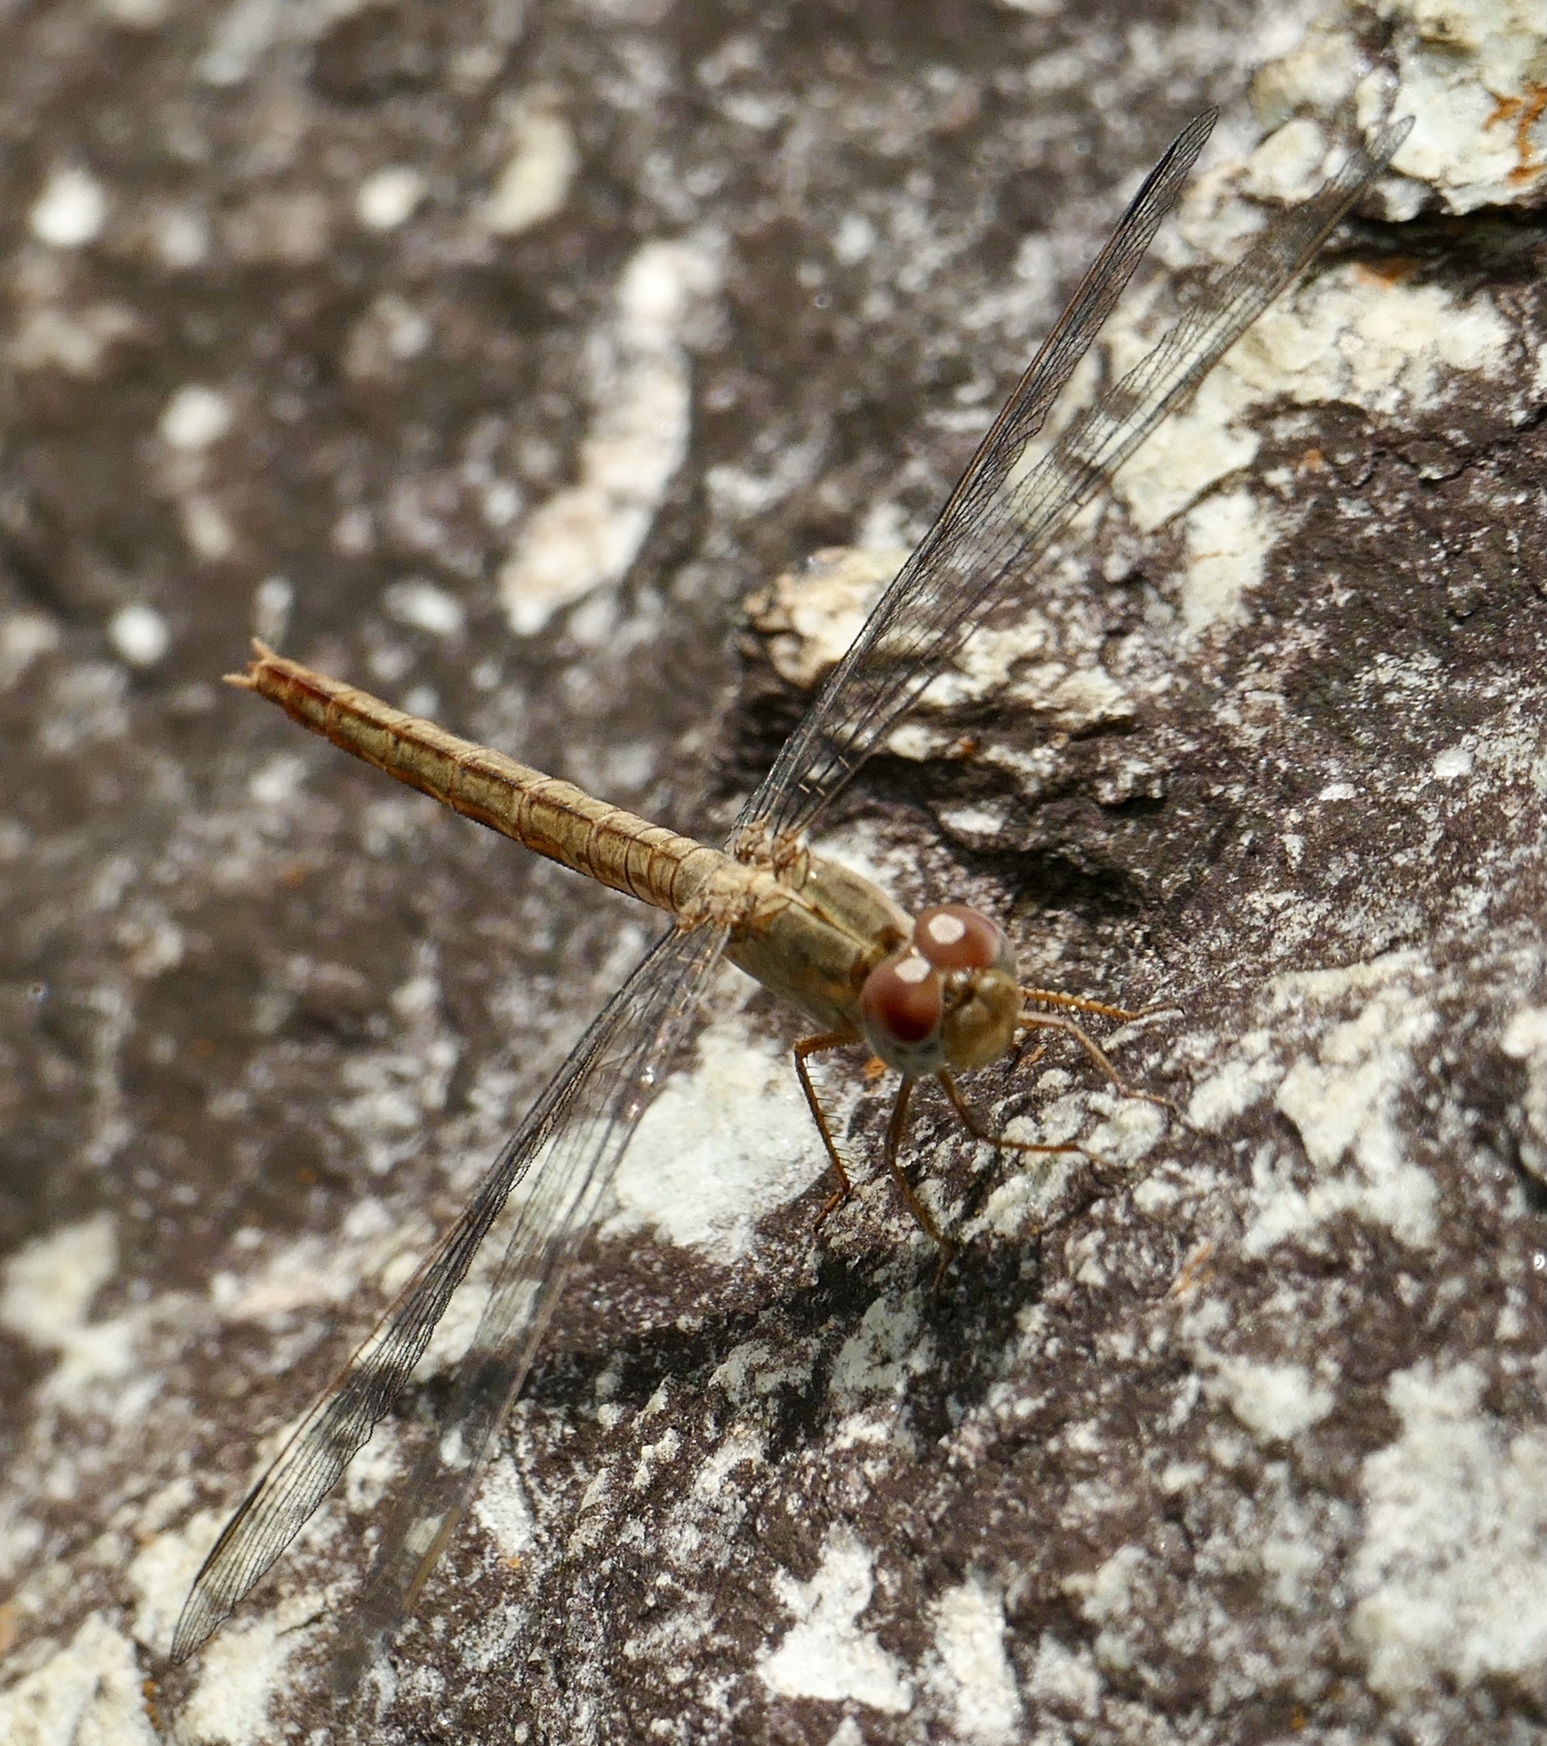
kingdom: Animalia
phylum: Arthropoda
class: Insecta
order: Odonata
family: Libellulidae
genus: Crocothemis
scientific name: Crocothemis divisa
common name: Divisa scarlet
